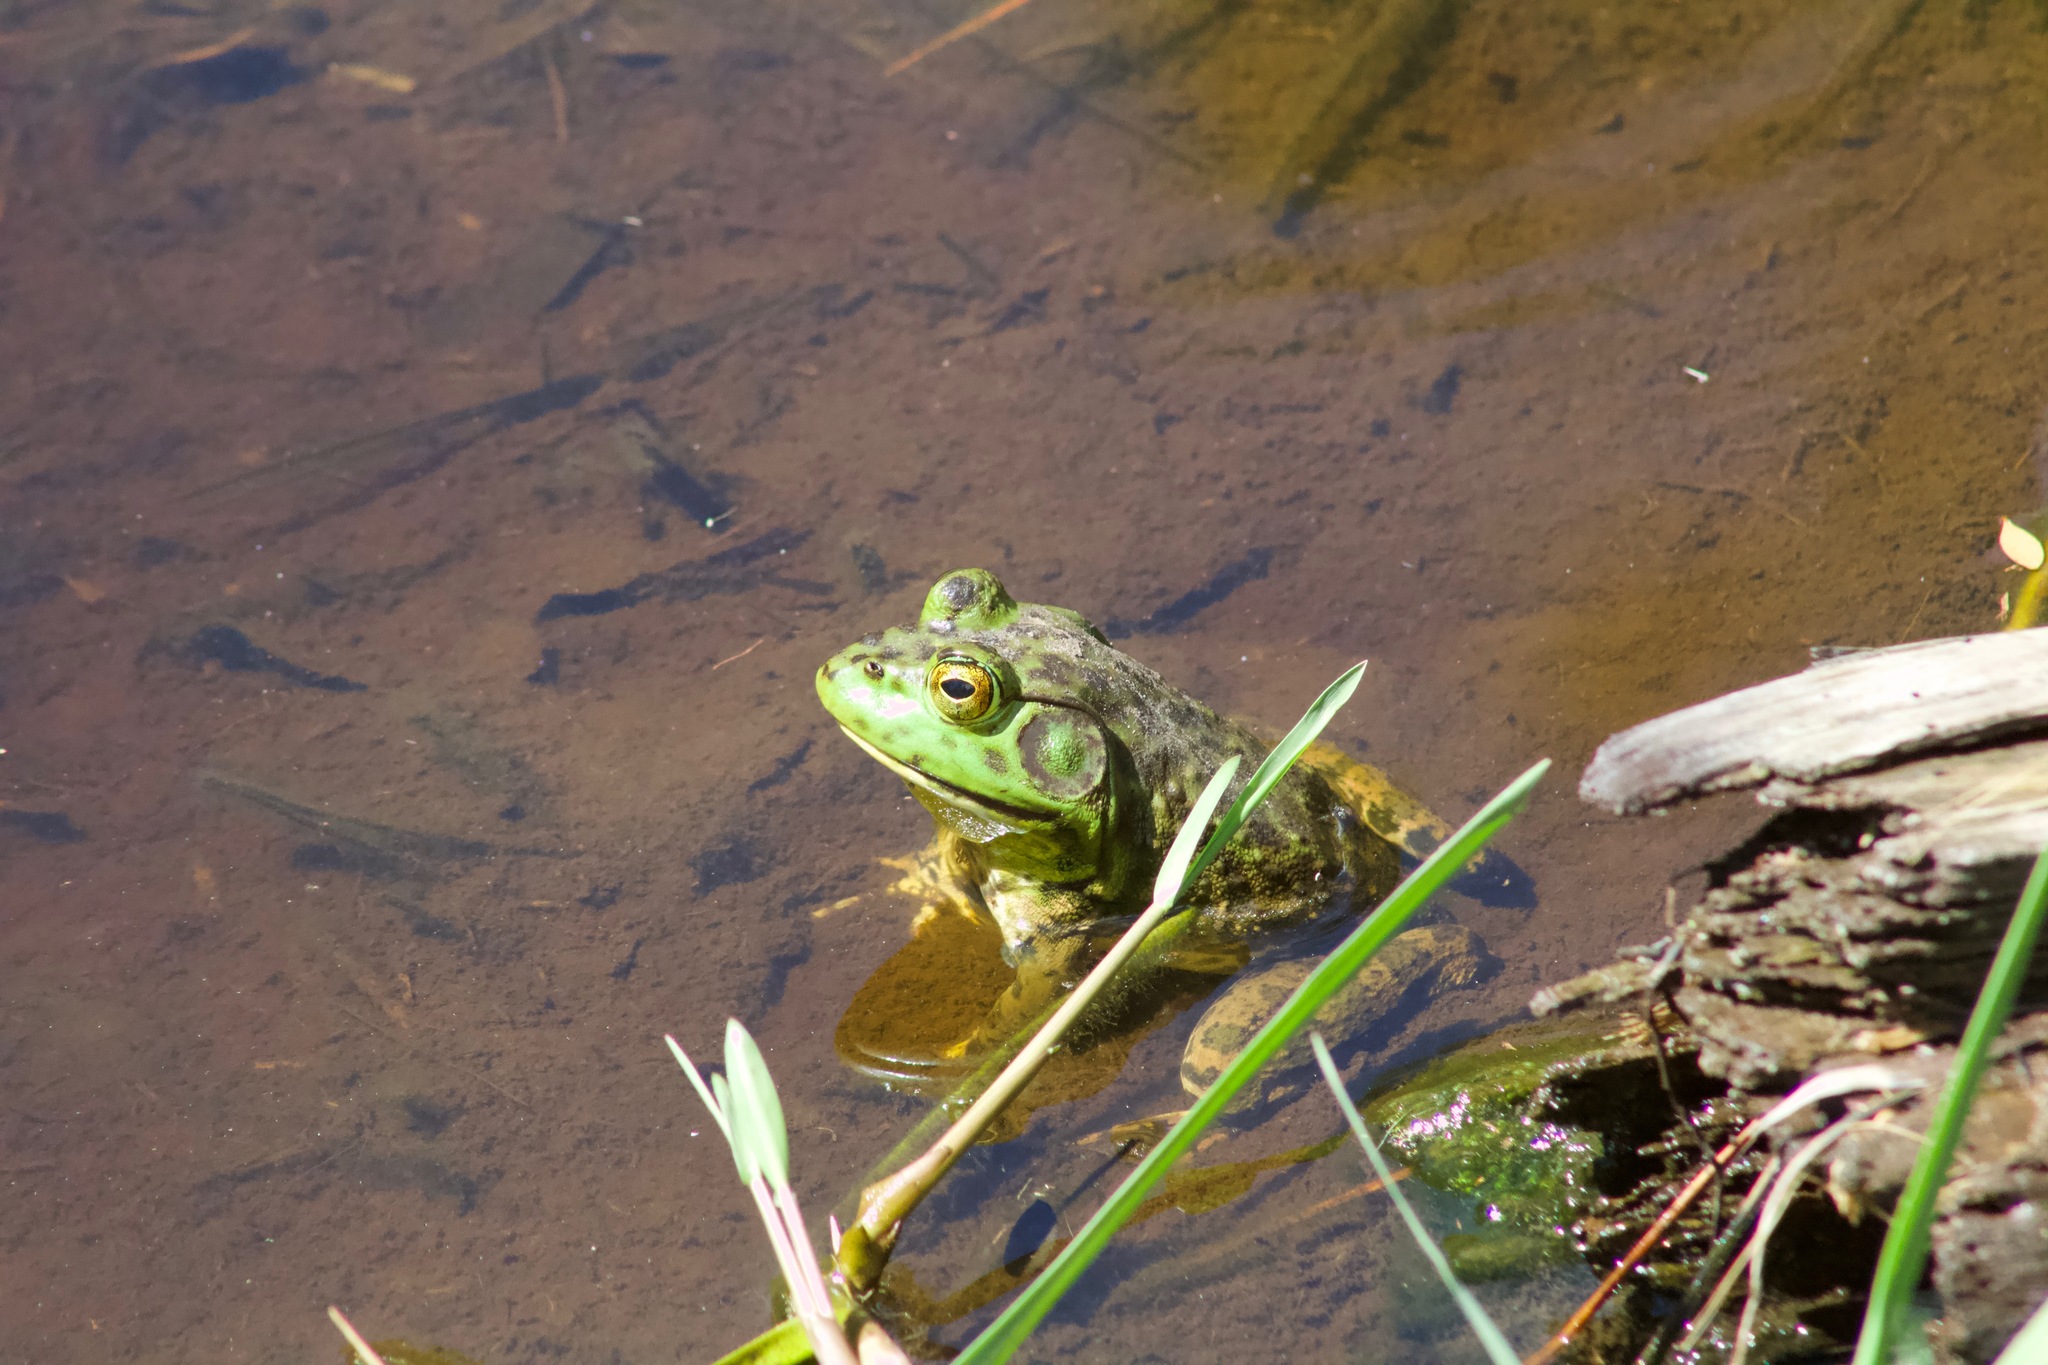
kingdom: Animalia
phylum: Chordata
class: Amphibia
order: Anura
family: Ranidae
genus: Lithobates
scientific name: Lithobates catesbeianus
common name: American bullfrog
